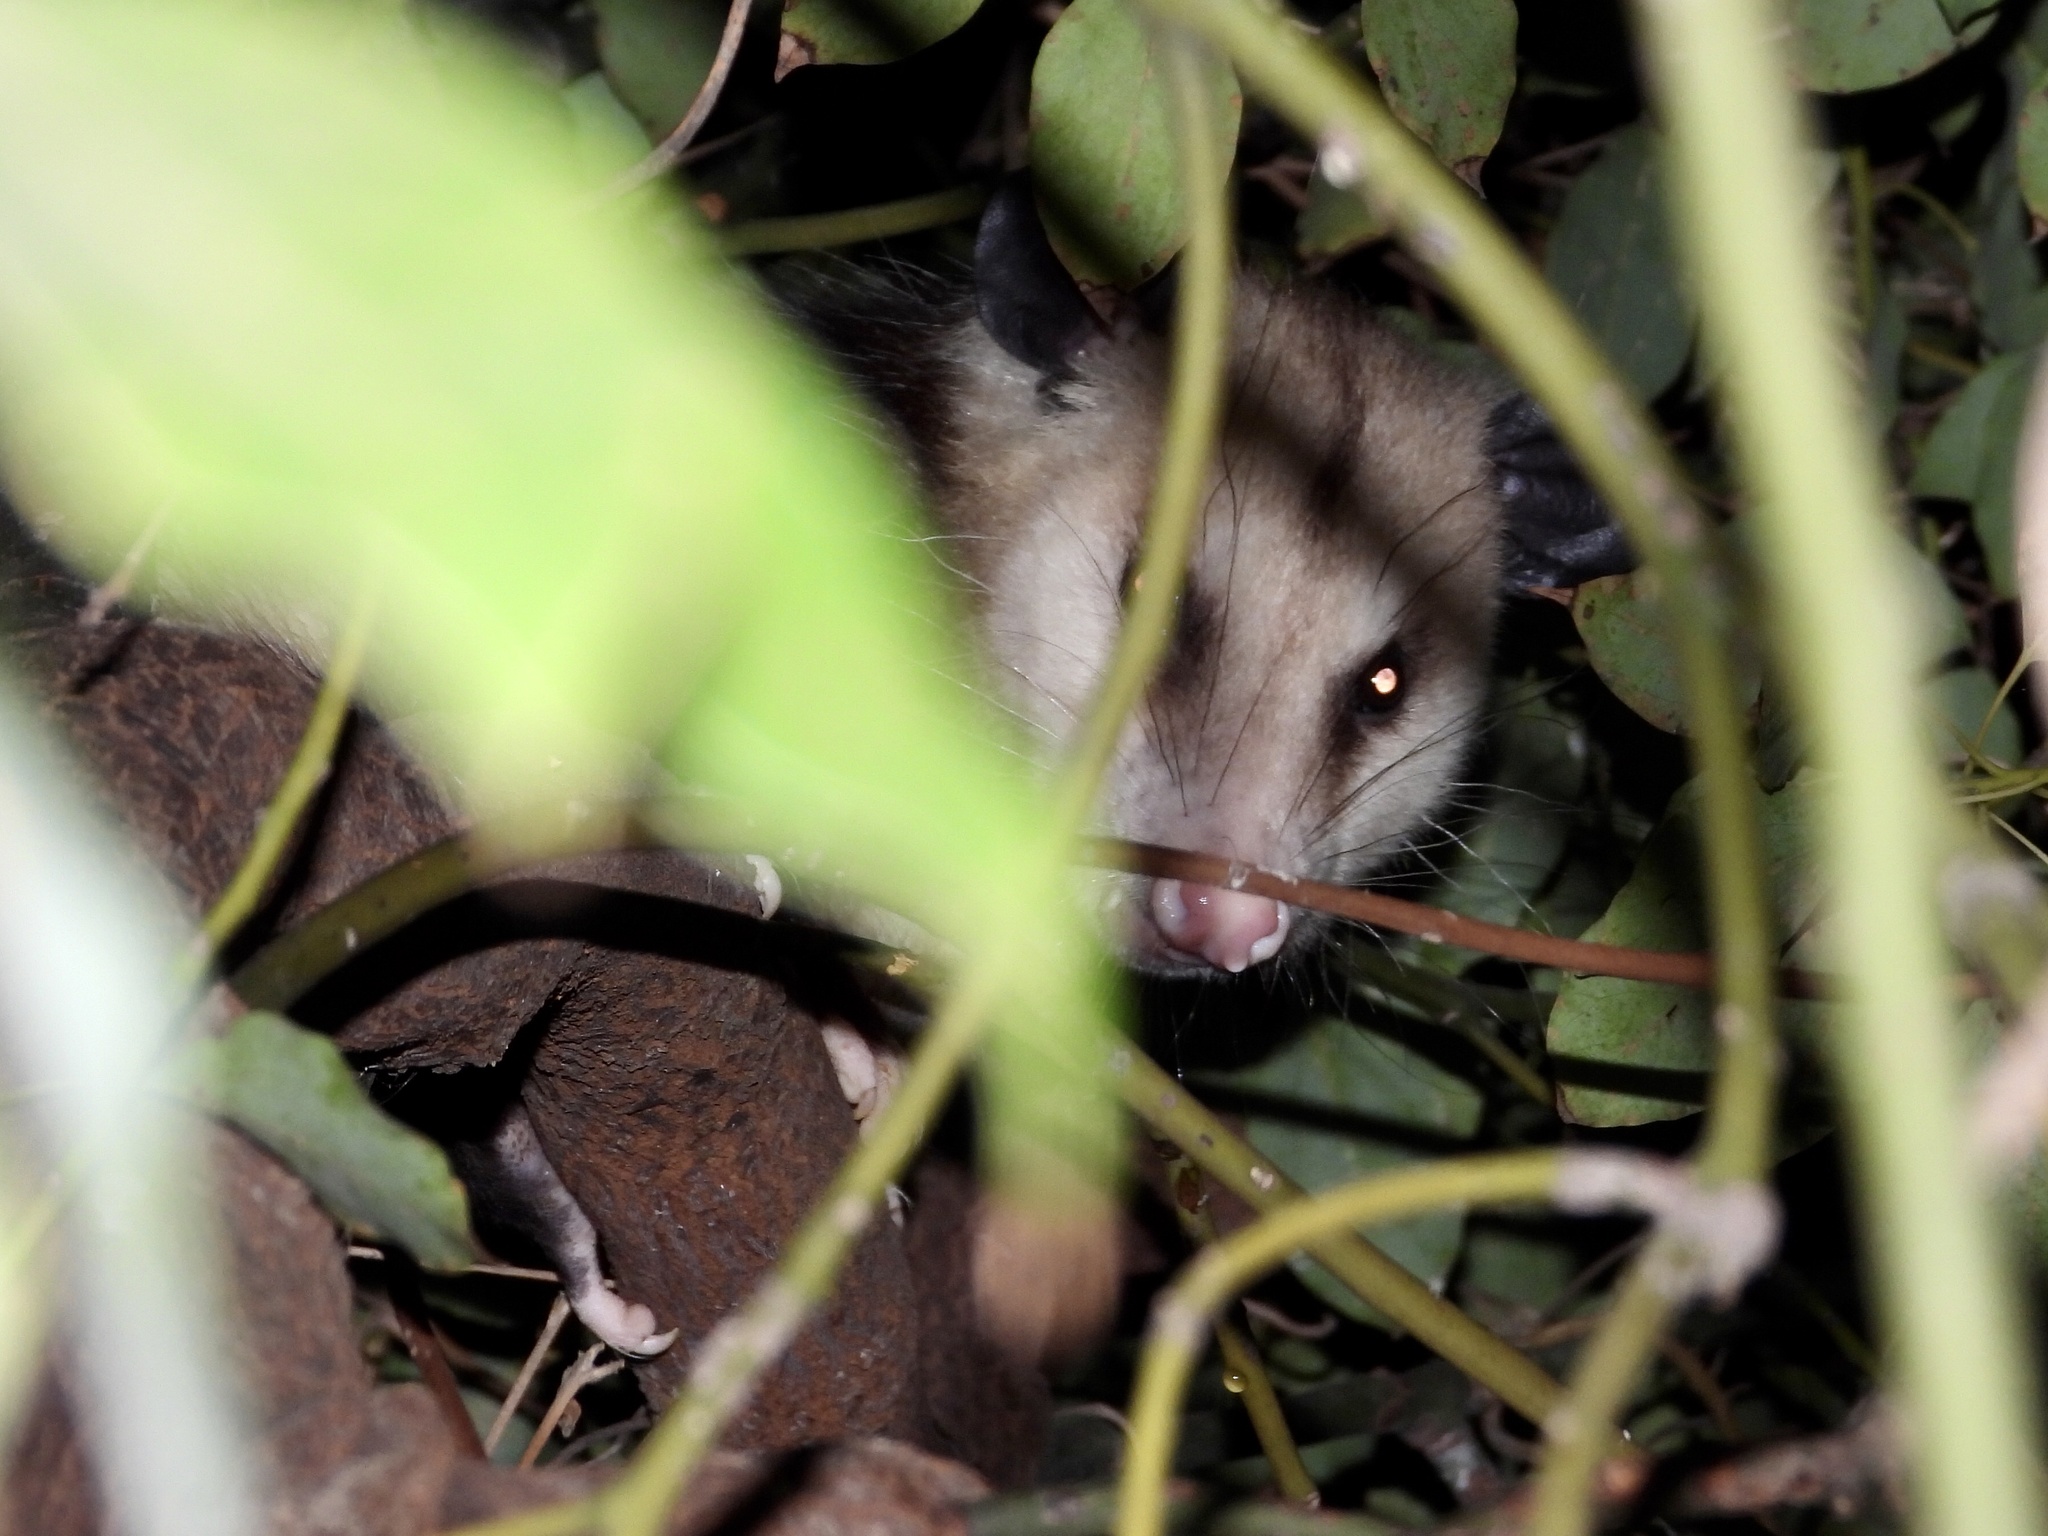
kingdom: Animalia
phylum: Chordata
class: Mammalia
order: Didelphimorphia
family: Didelphidae
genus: Didelphis
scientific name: Didelphis virginiana
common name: Virginia opossum
